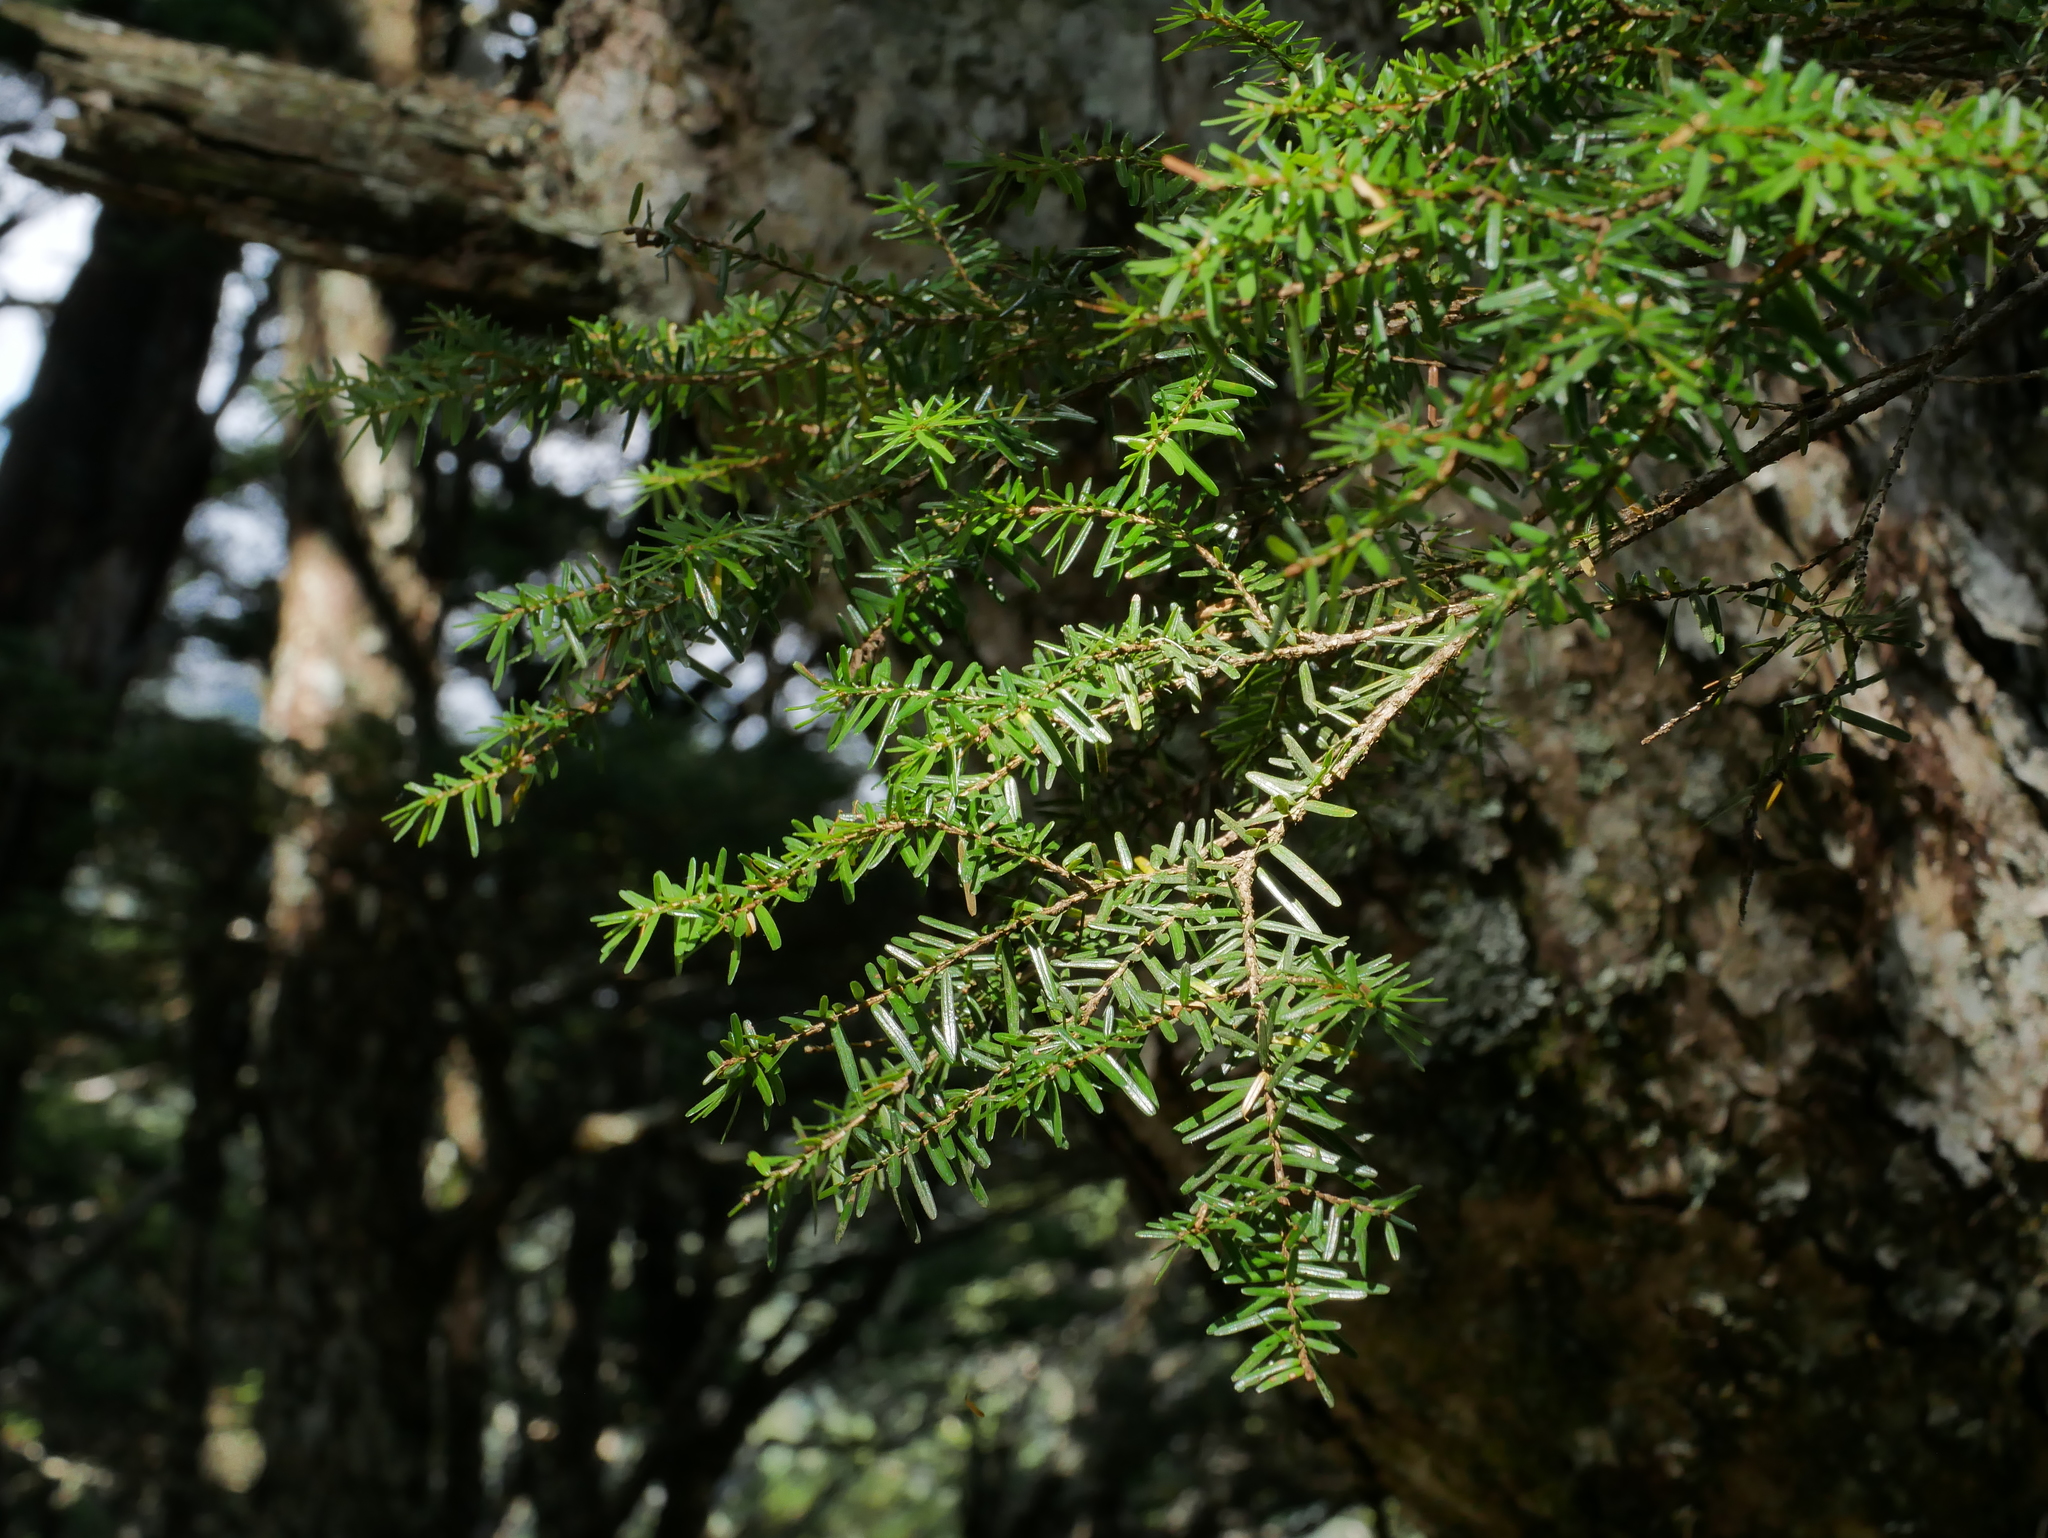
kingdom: Plantae
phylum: Tracheophyta
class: Pinopsida
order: Pinales
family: Pinaceae
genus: Tsuga
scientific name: Tsuga chinensis
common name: Chinese hemlock
